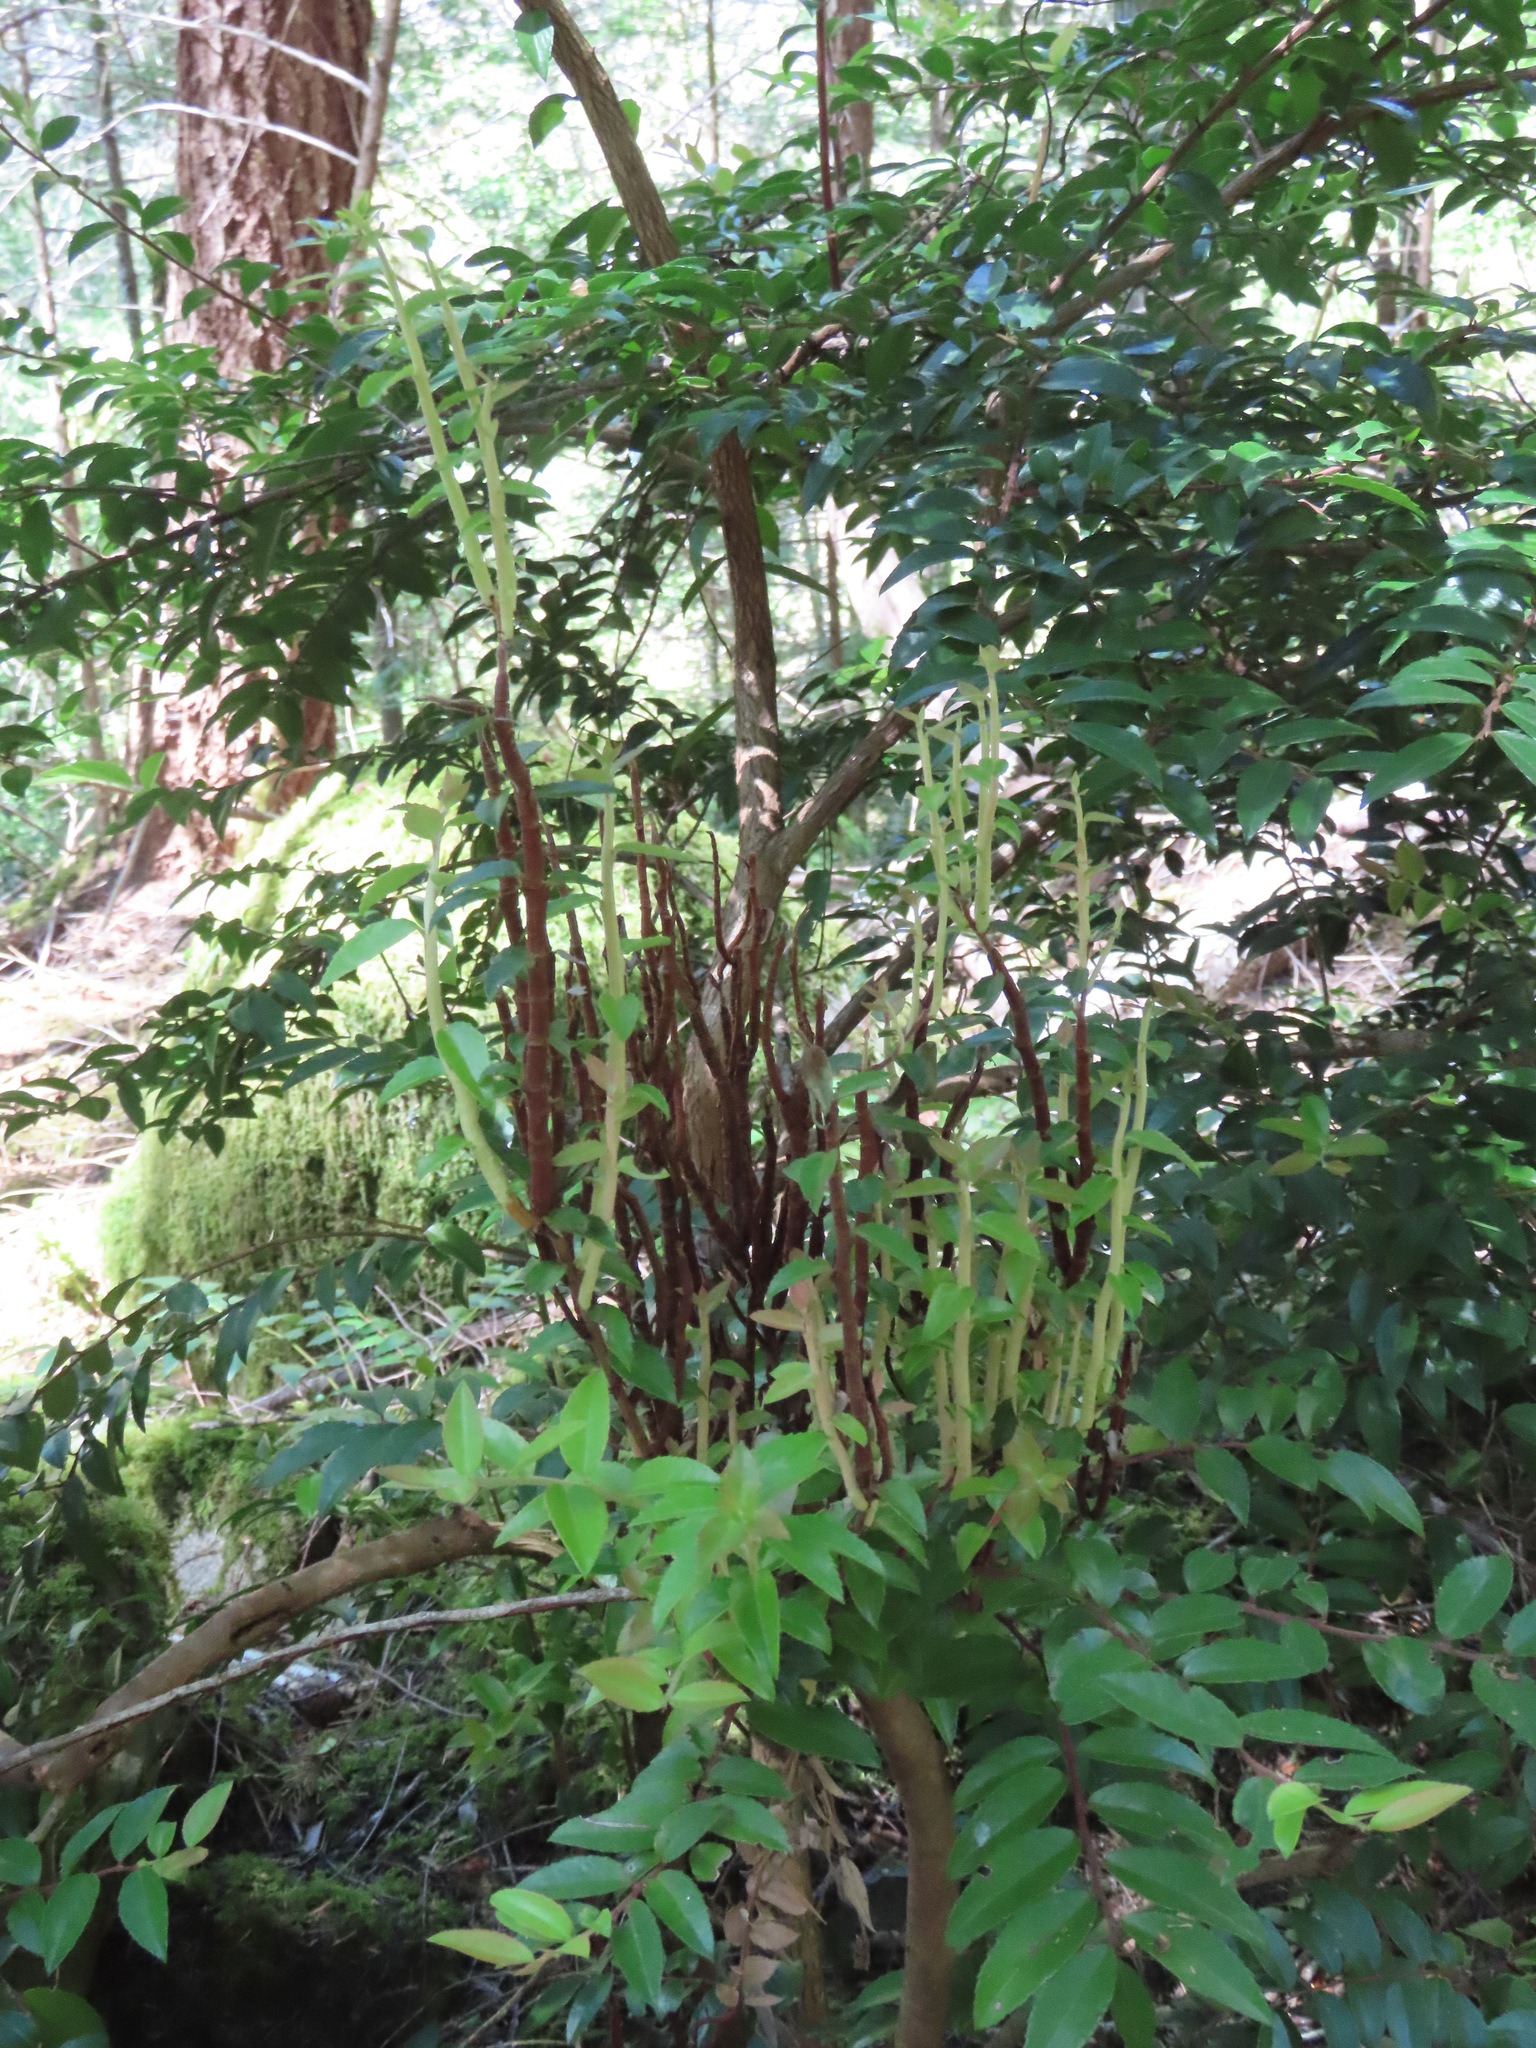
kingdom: Fungi
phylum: Basidiomycota
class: Pucciniomycetes
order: Pucciniales
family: Pucciniastraceae
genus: Calyptospora
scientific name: Calyptospora
